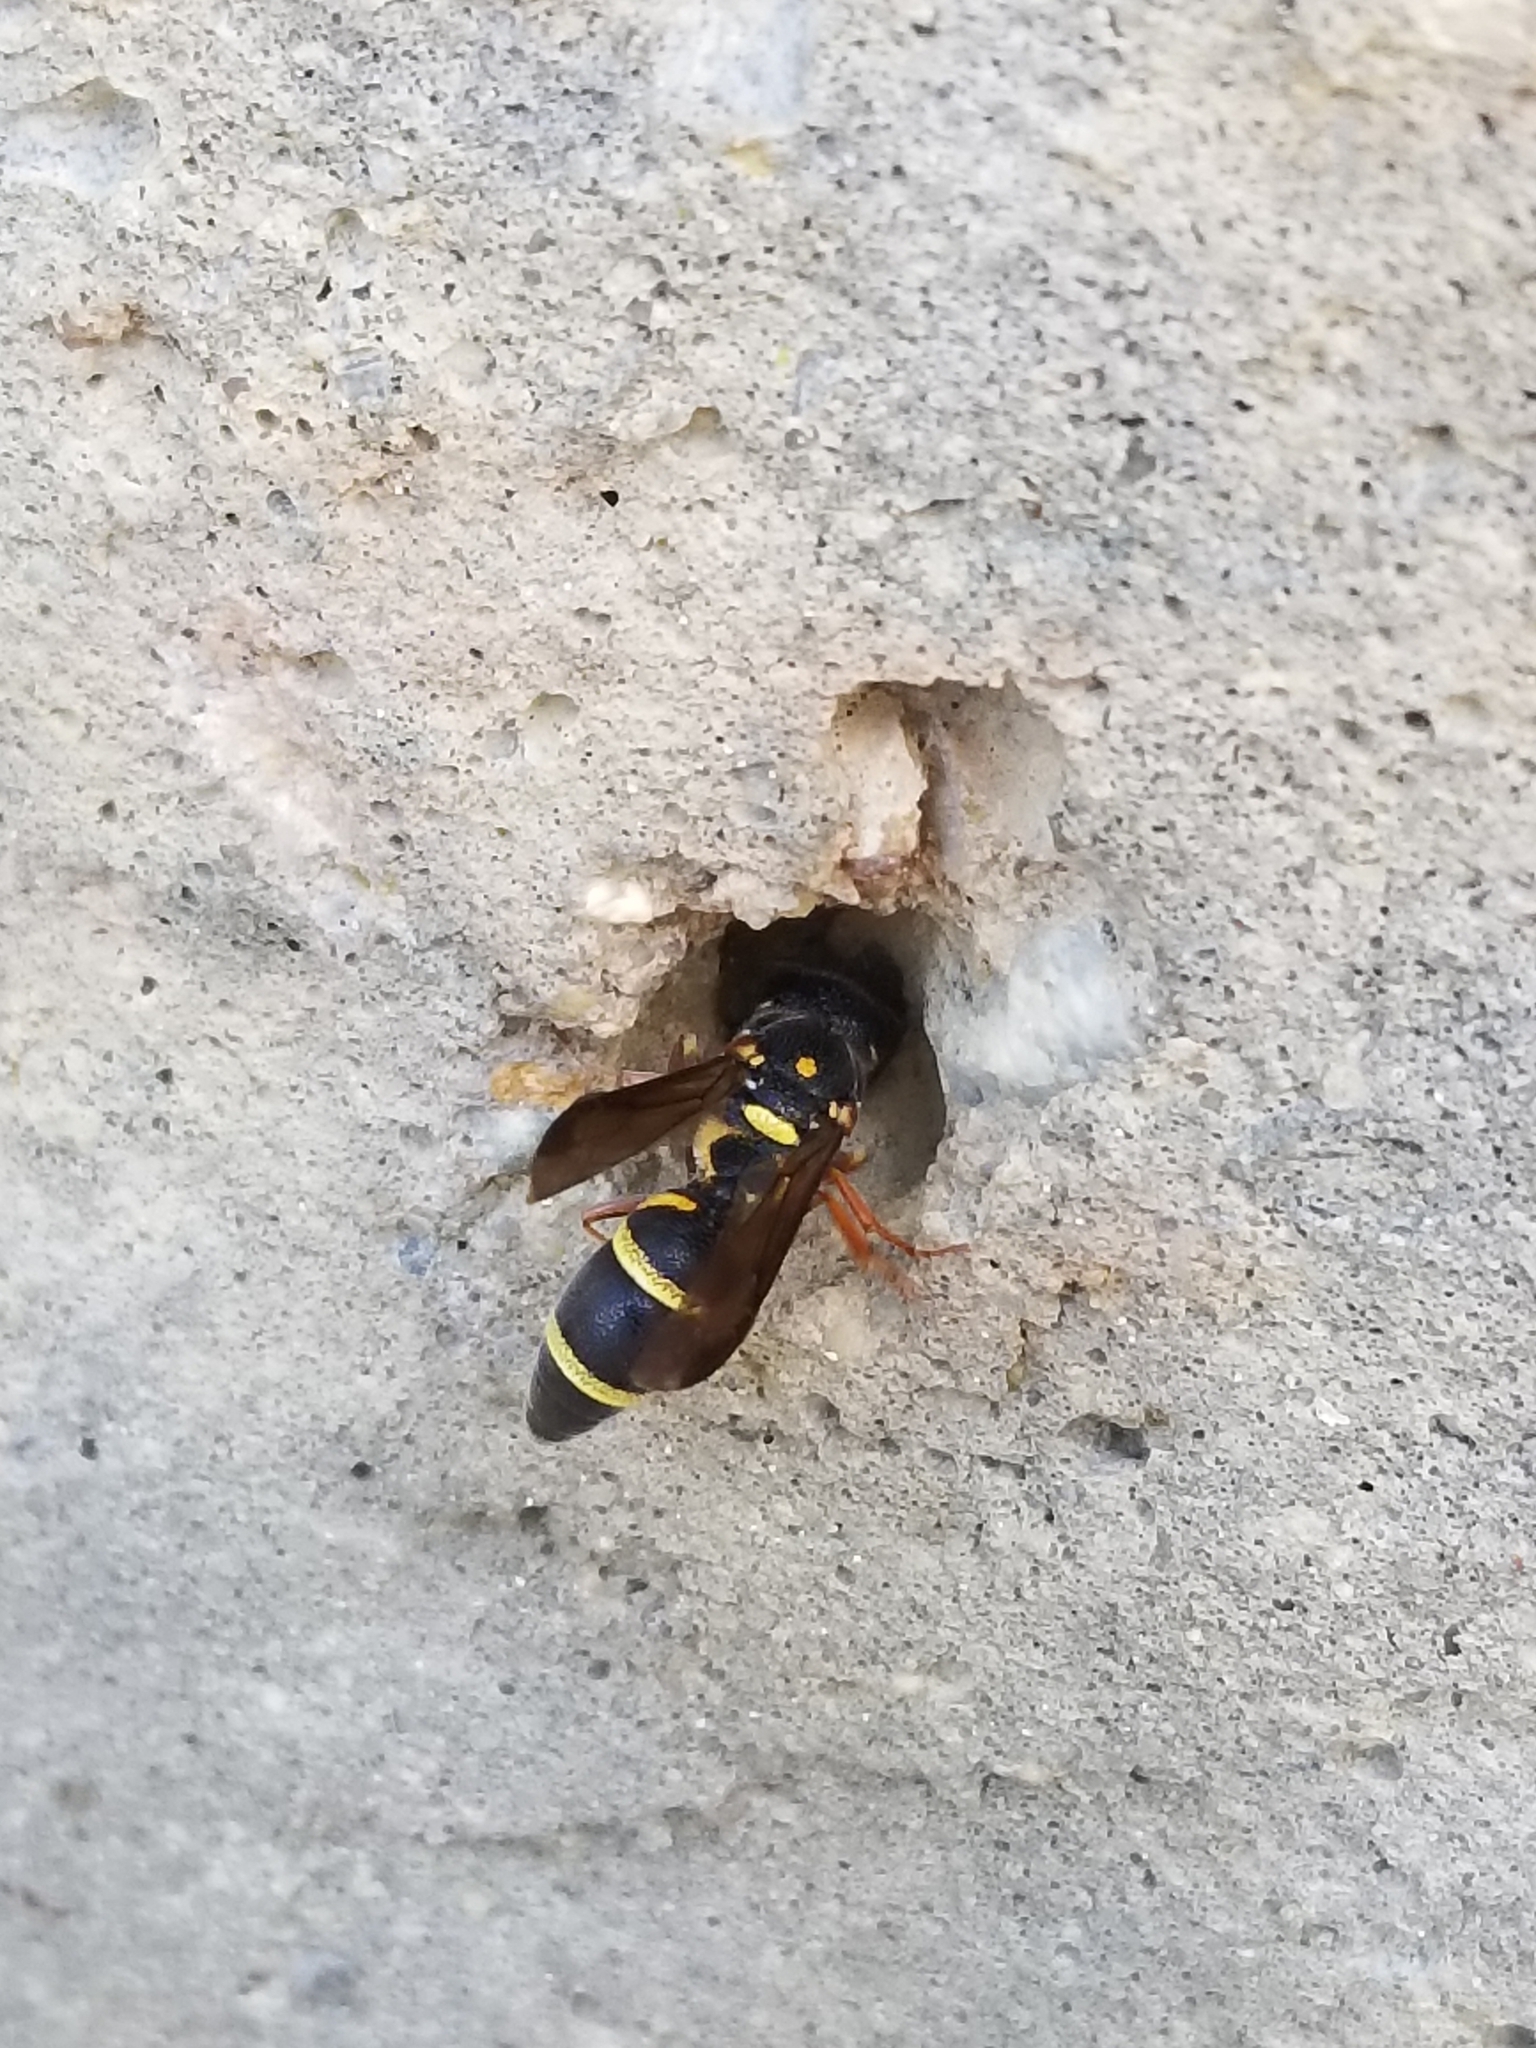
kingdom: Animalia
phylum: Arthropoda
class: Insecta
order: Hymenoptera
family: Eumenidae
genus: Parancistrocerus
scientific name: Parancistrocerus fulvipes
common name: Potter wasp
